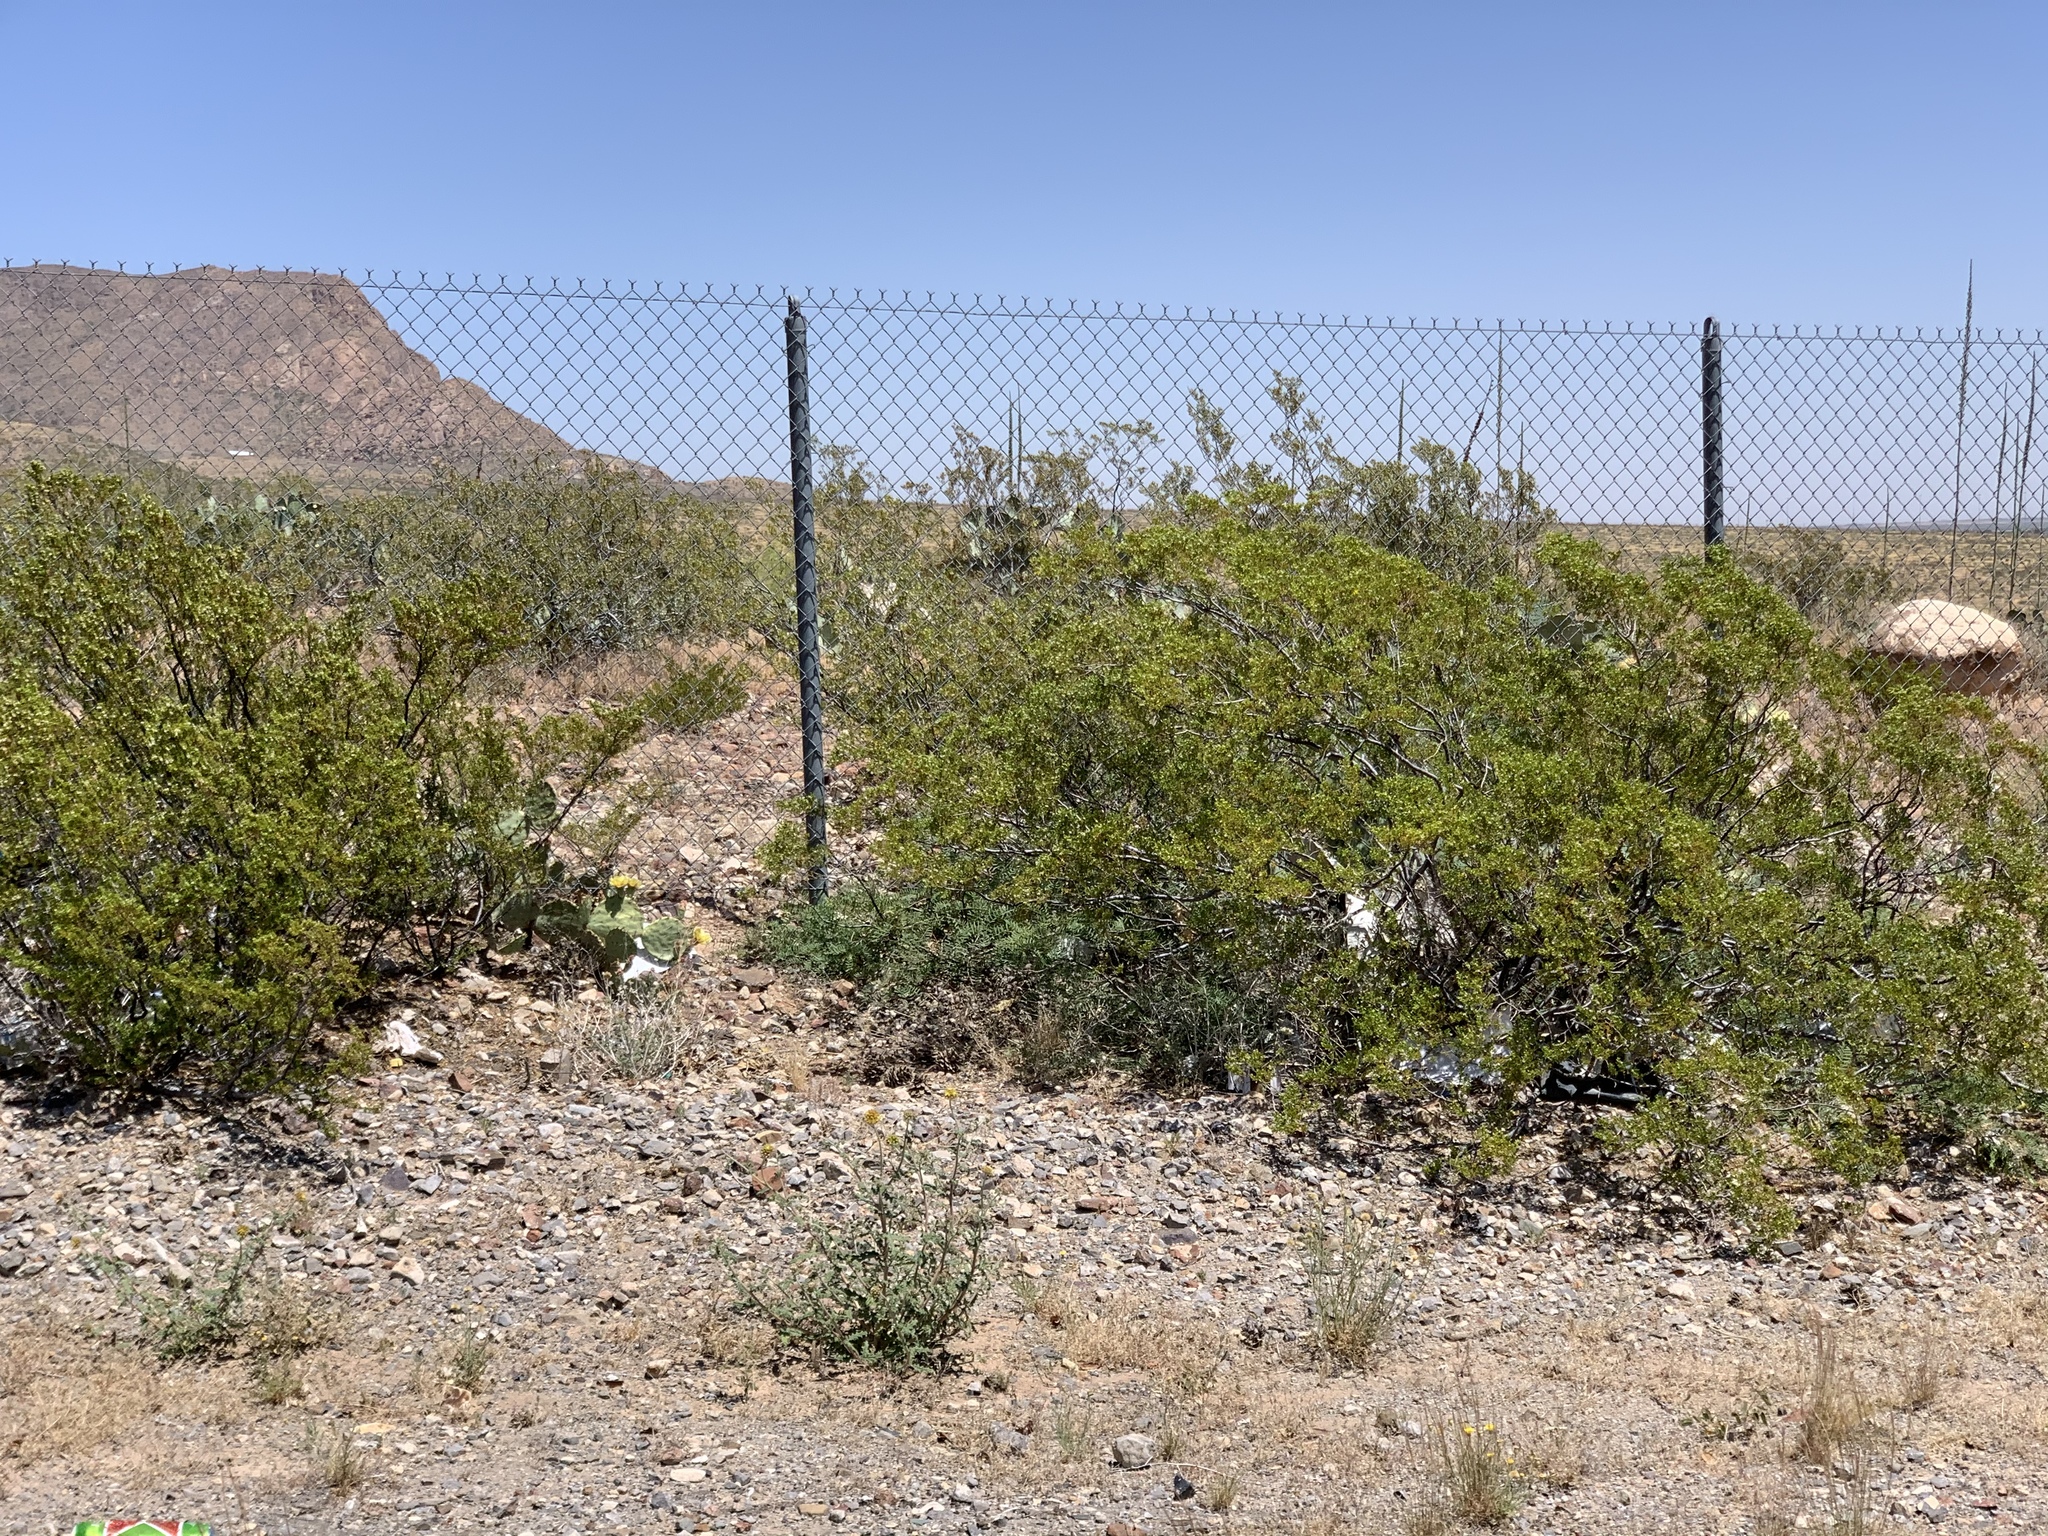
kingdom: Plantae
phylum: Tracheophyta
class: Magnoliopsida
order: Zygophyllales
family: Zygophyllaceae
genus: Larrea
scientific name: Larrea tridentata
